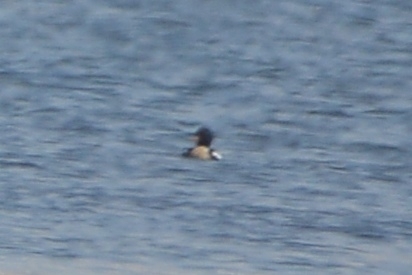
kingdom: Animalia
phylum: Chordata
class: Aves
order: Anseriformes
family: Anatidae
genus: Mergus
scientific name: Mergus serrator
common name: Red-breasted merganser
